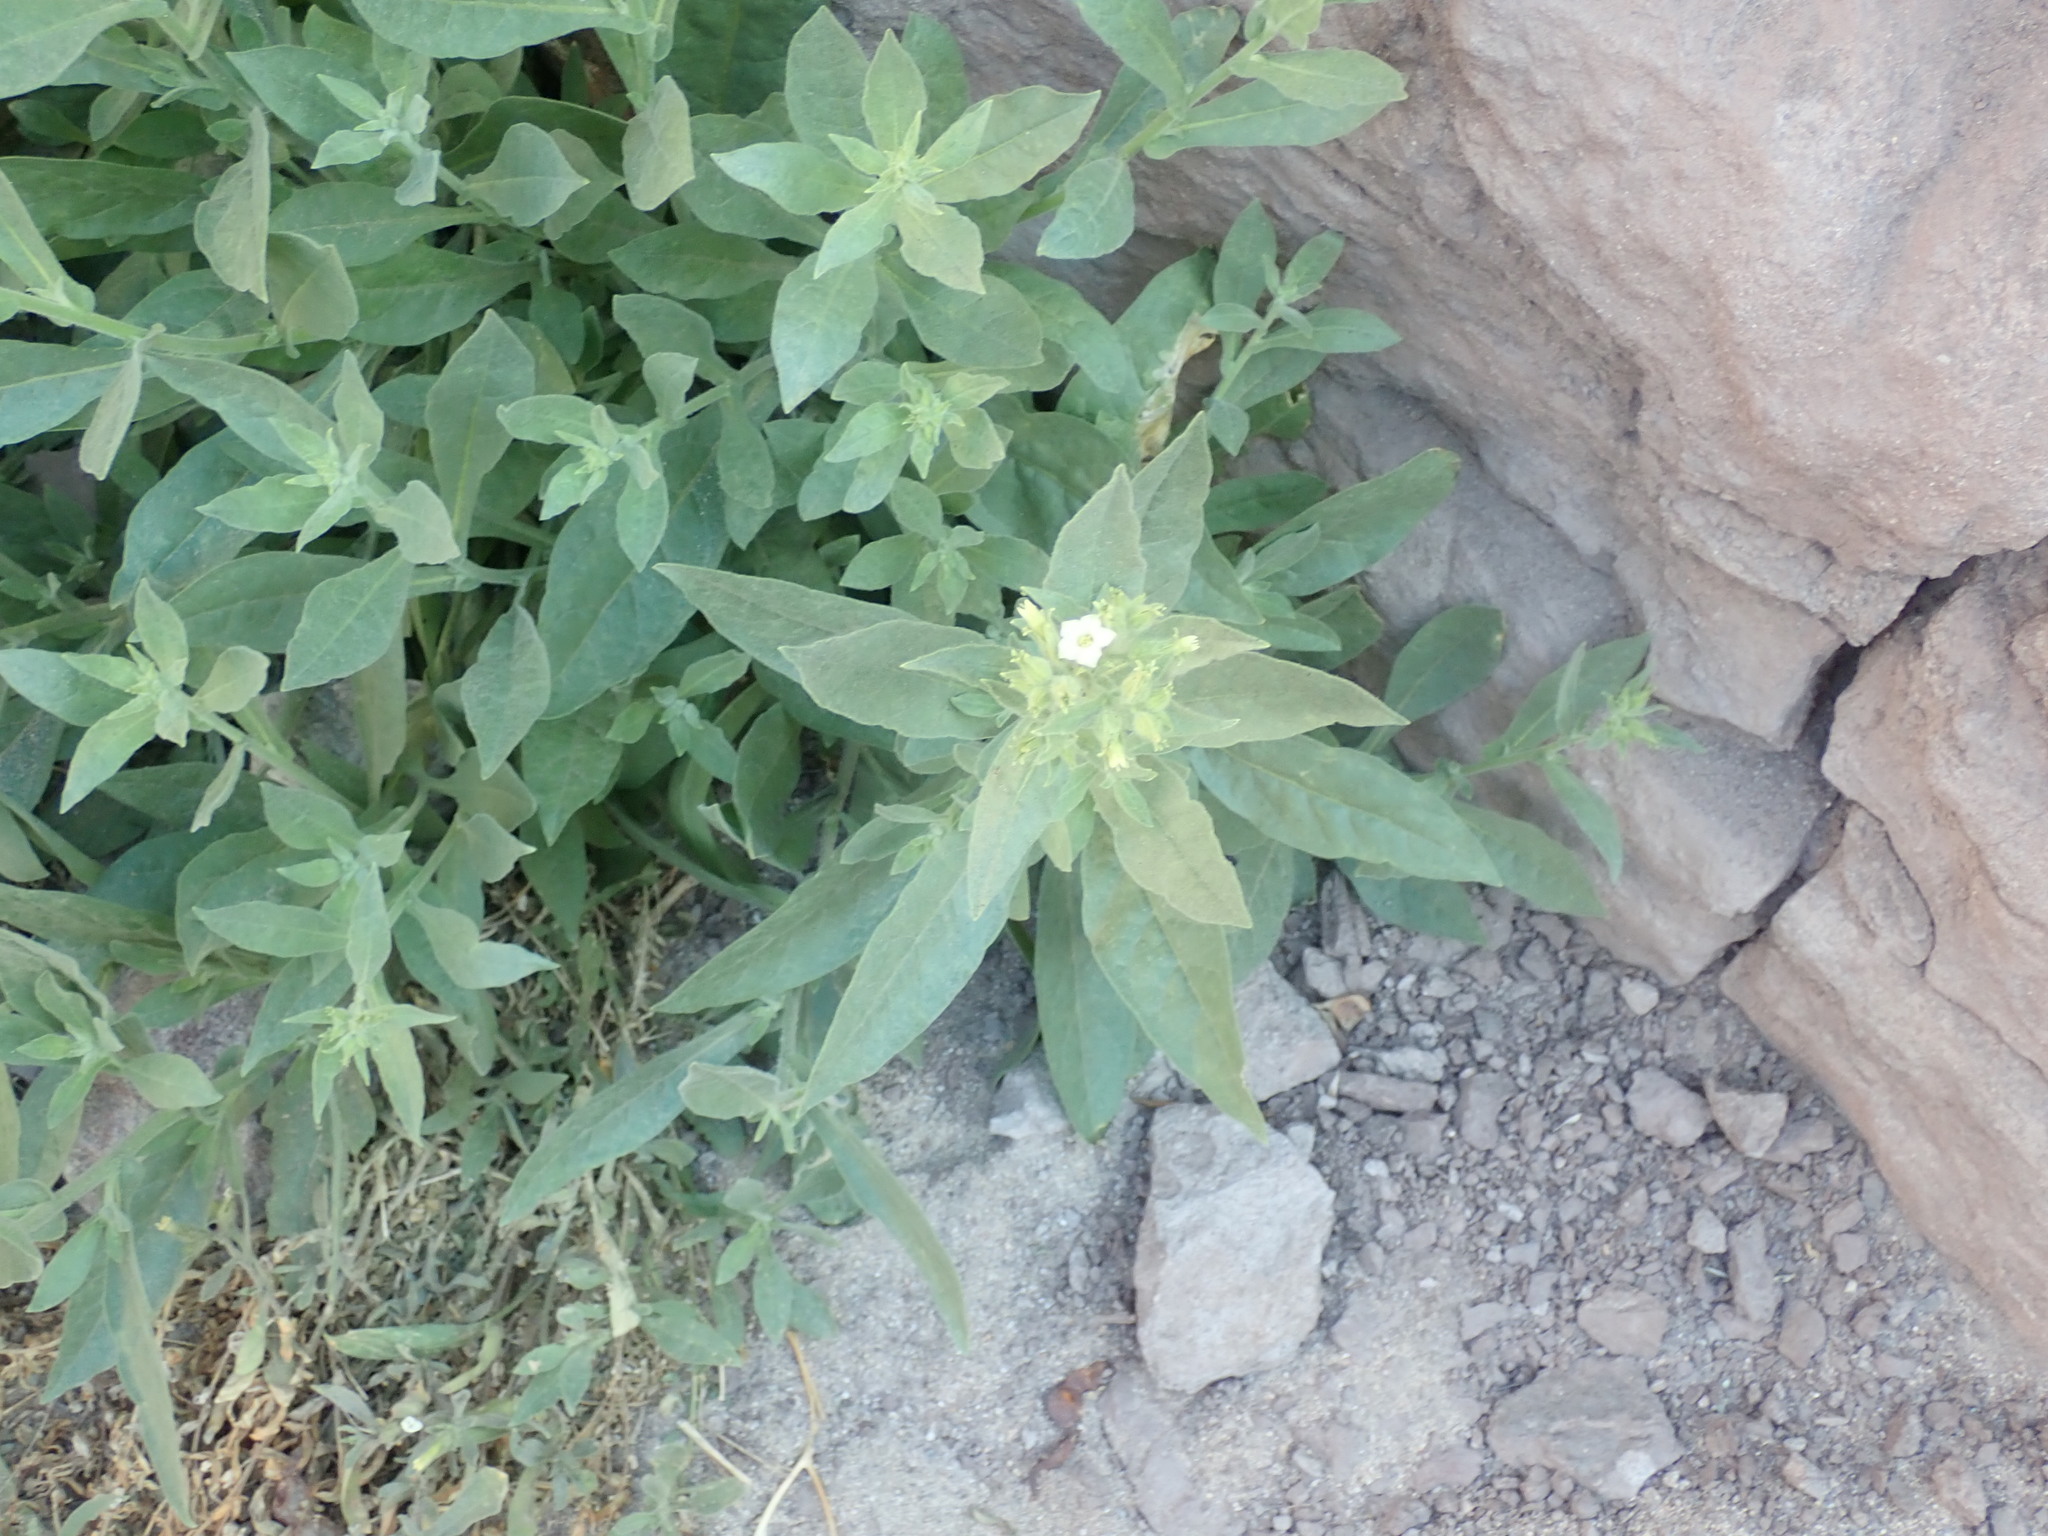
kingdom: Plantae
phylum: Tracheophyta
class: Magnoliopsida
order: Solanales
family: Solanaceae
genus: Nicotiana
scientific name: Nicotiana obtusifolia
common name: Desert tobacco
